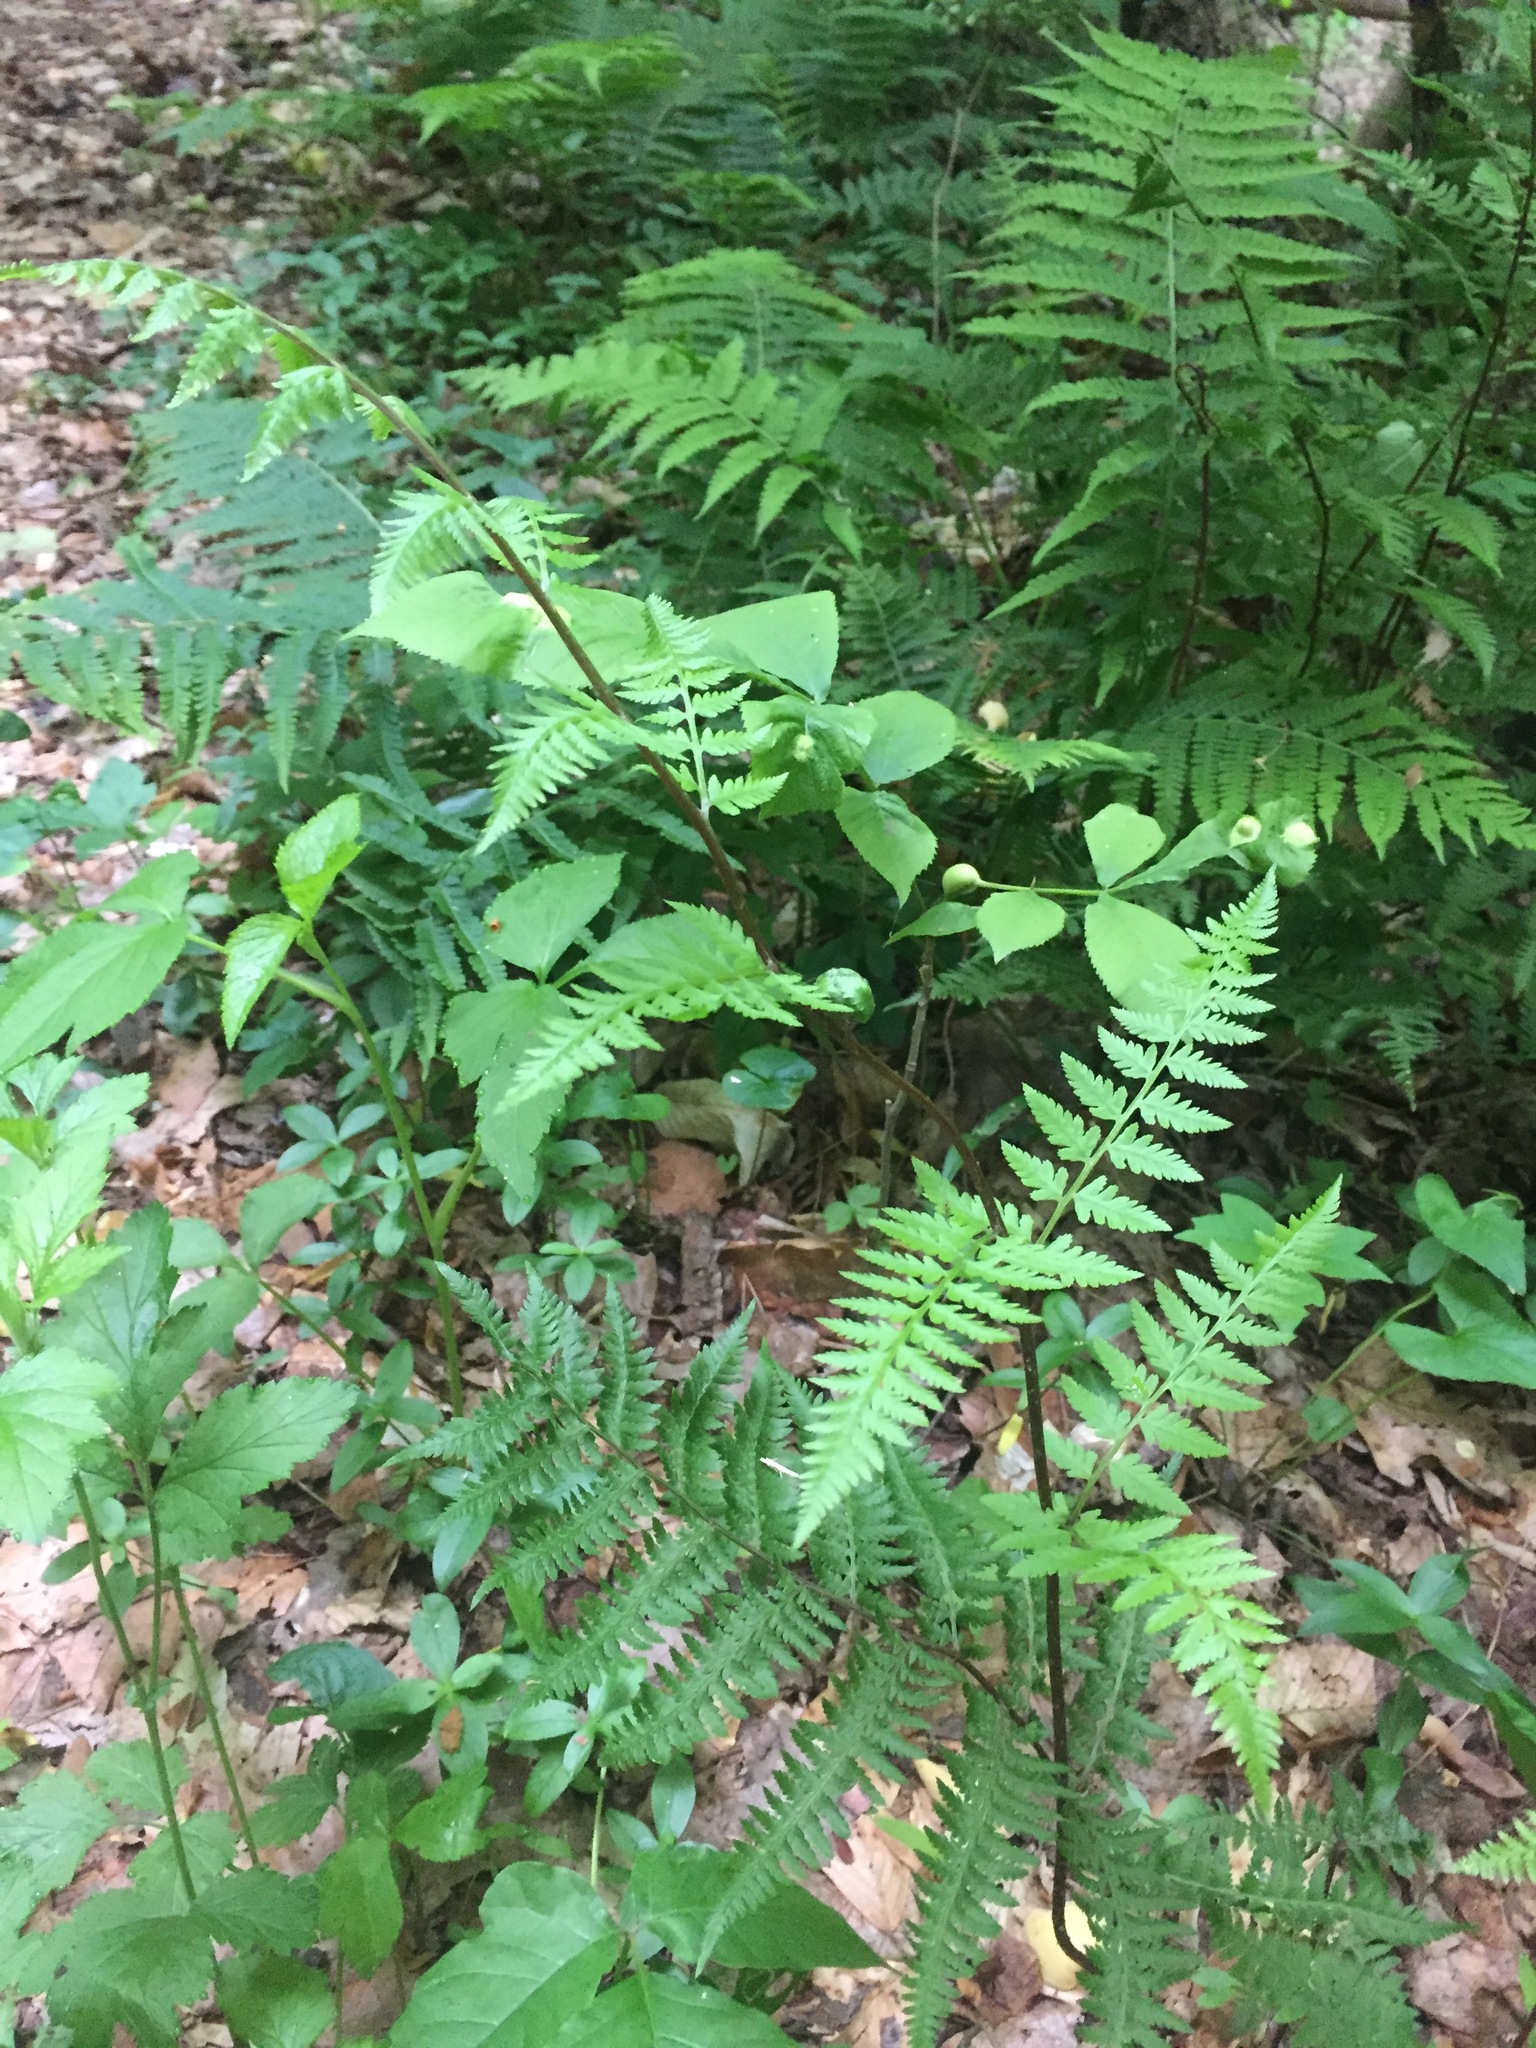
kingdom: Plantae
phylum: Tracheophyta
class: Polypodiopsida
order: Polypodiales
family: Athyriaceae
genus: Athyrium
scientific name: Athyrium asplenioides
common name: Southern lady fern
